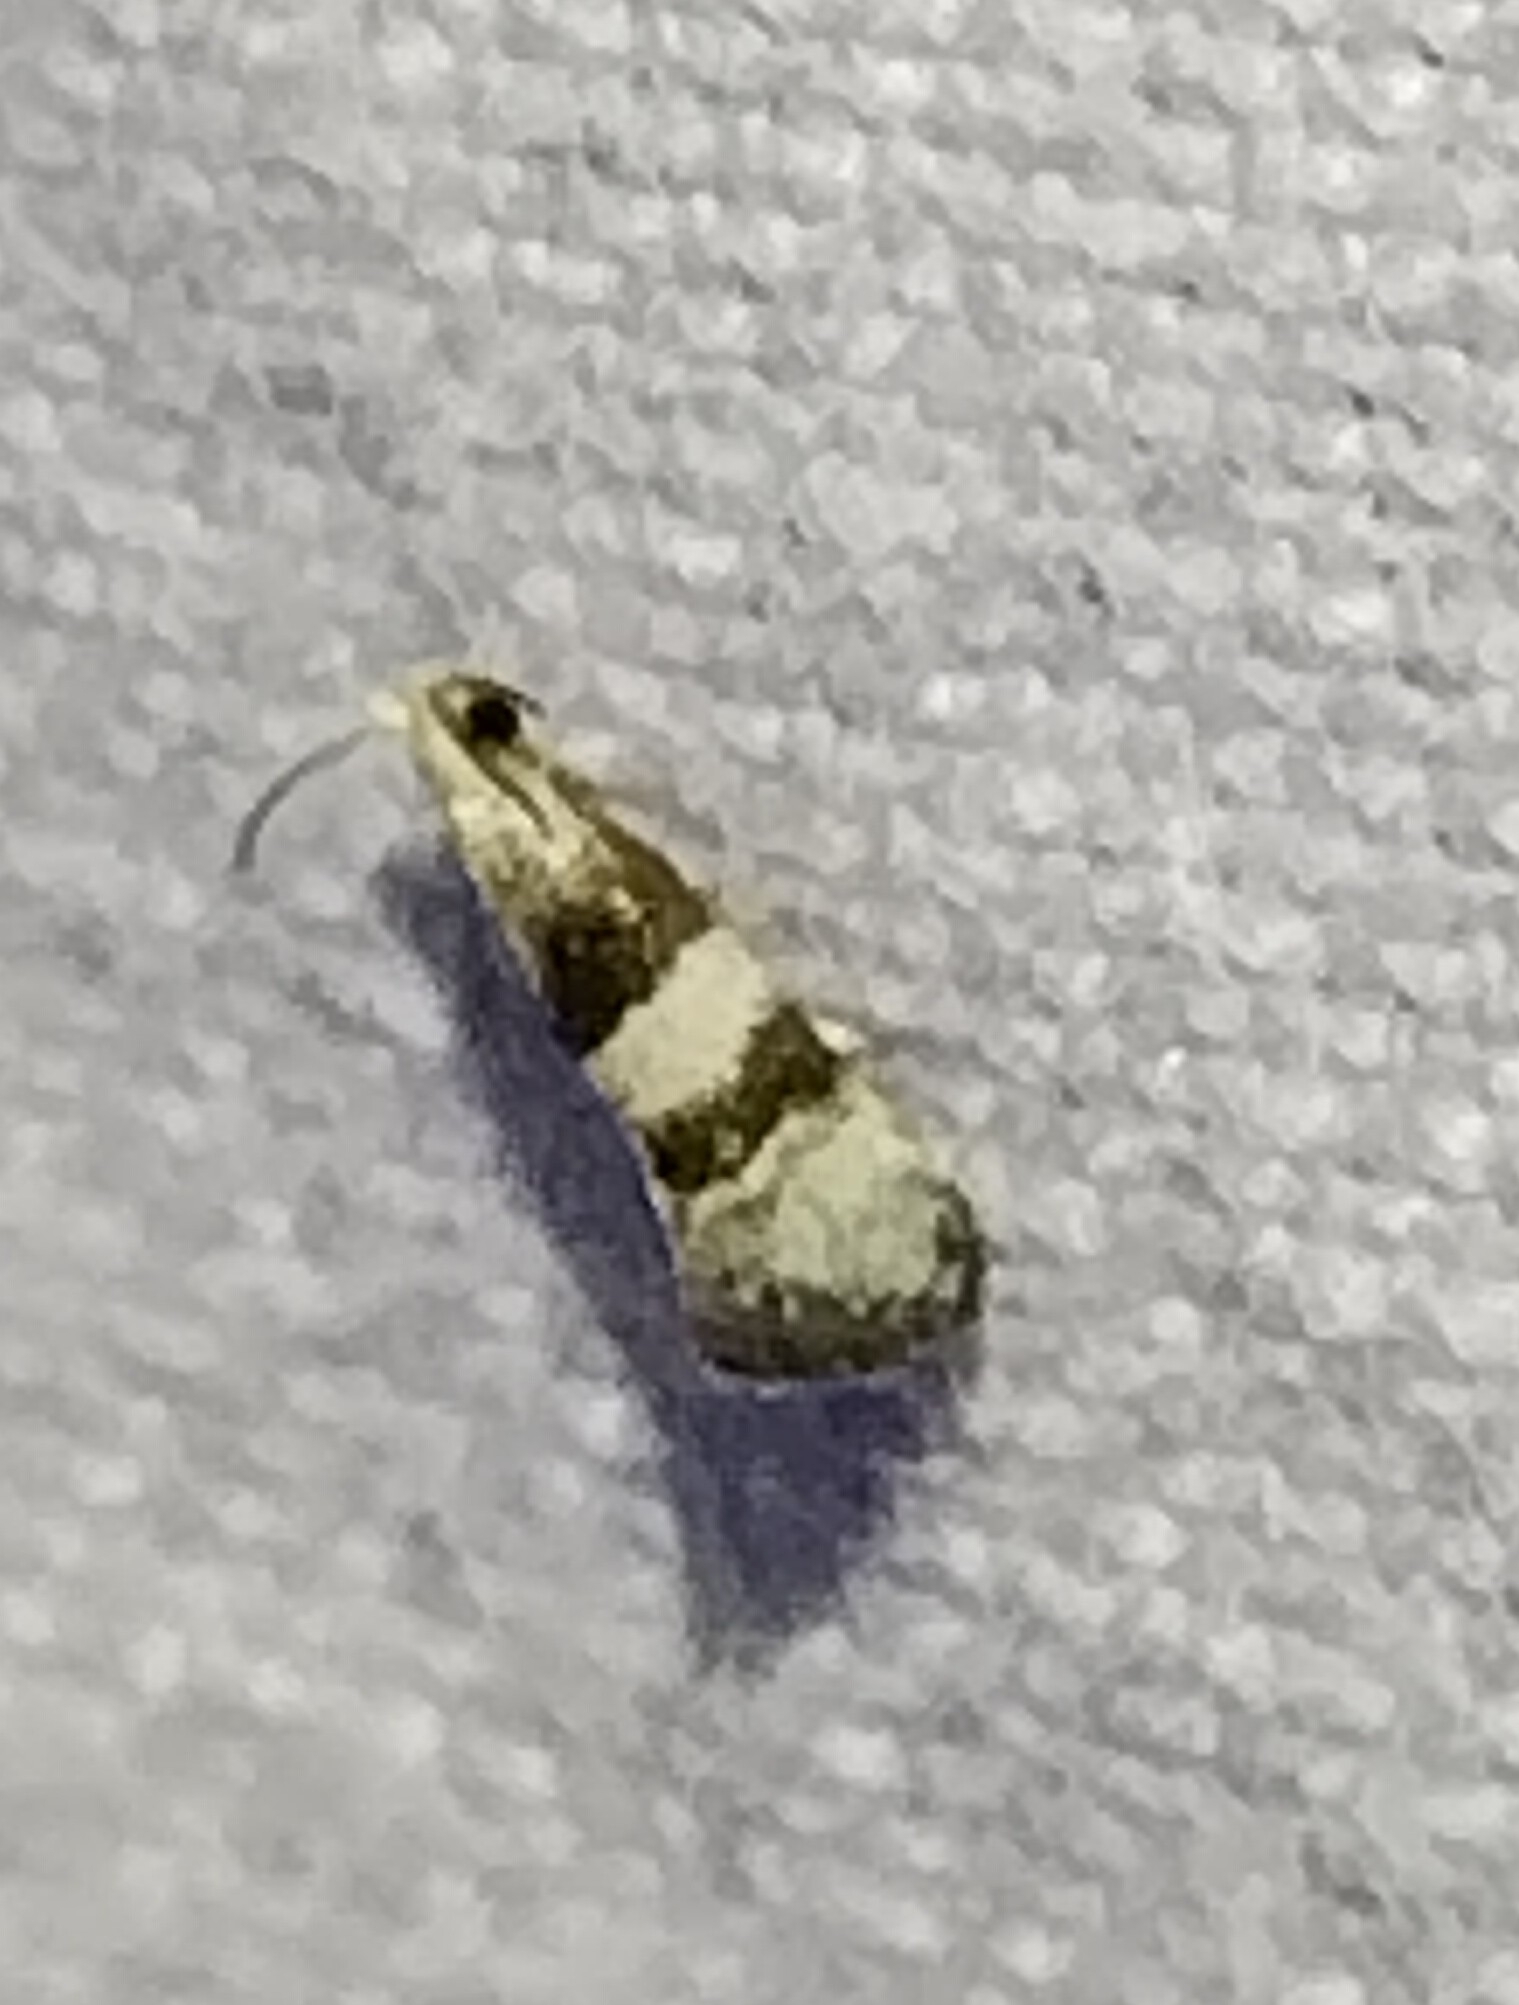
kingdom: Animalia
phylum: Arthropoda
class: Insecta
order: Lepidoptera
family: Tortricidae
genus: Corticivora
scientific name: Corticivora parva
